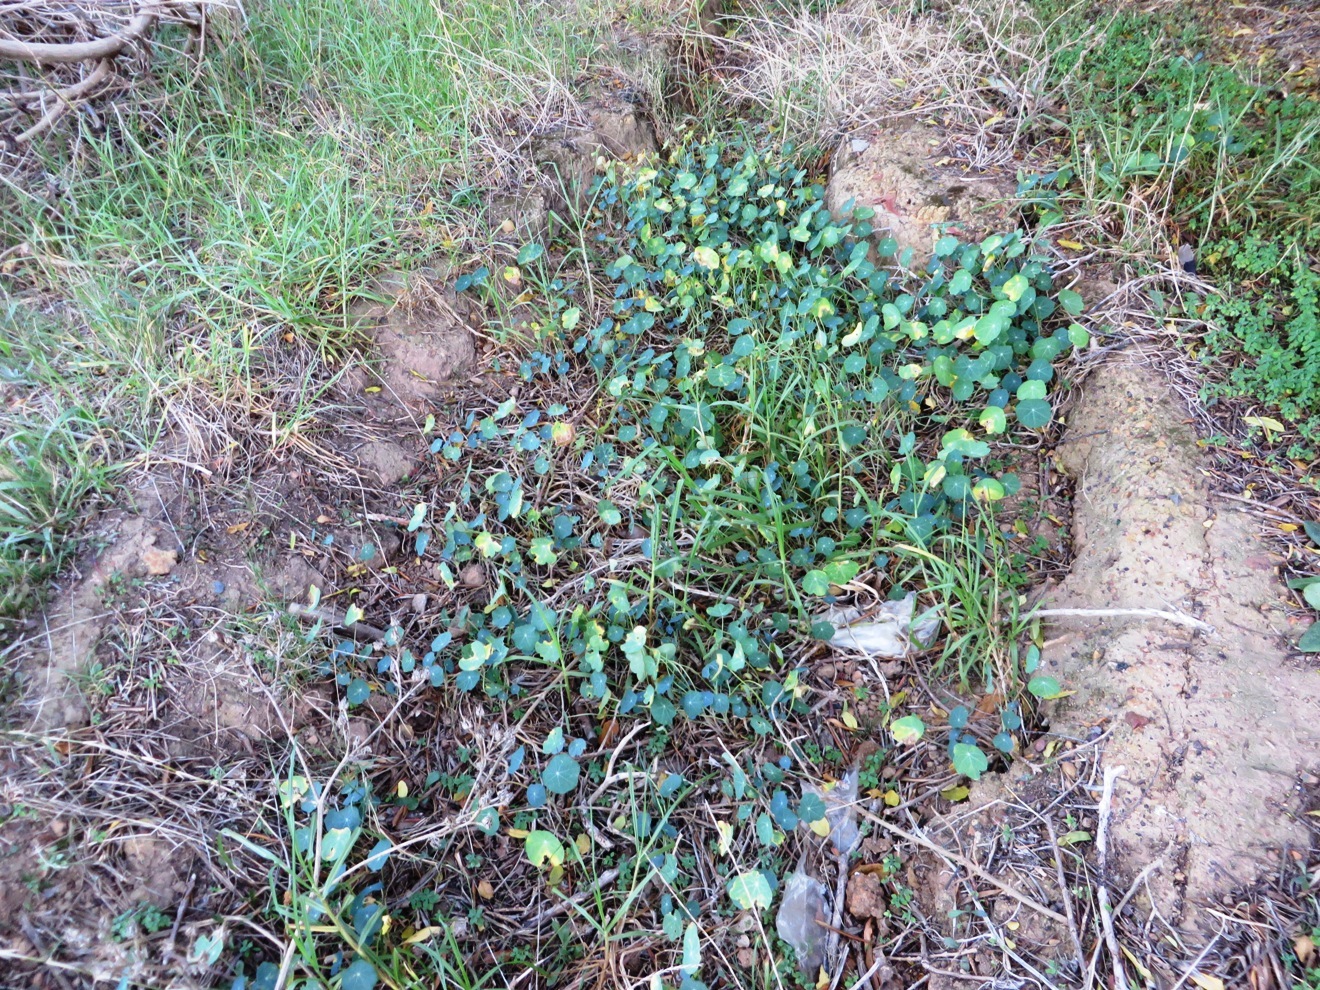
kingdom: Plantae
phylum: Tracheophyta
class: Magnoliopsida
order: Brassicales
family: Tropaeolaceae
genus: Tropaeolum
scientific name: Tropaeolum majus
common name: Nasturtium
